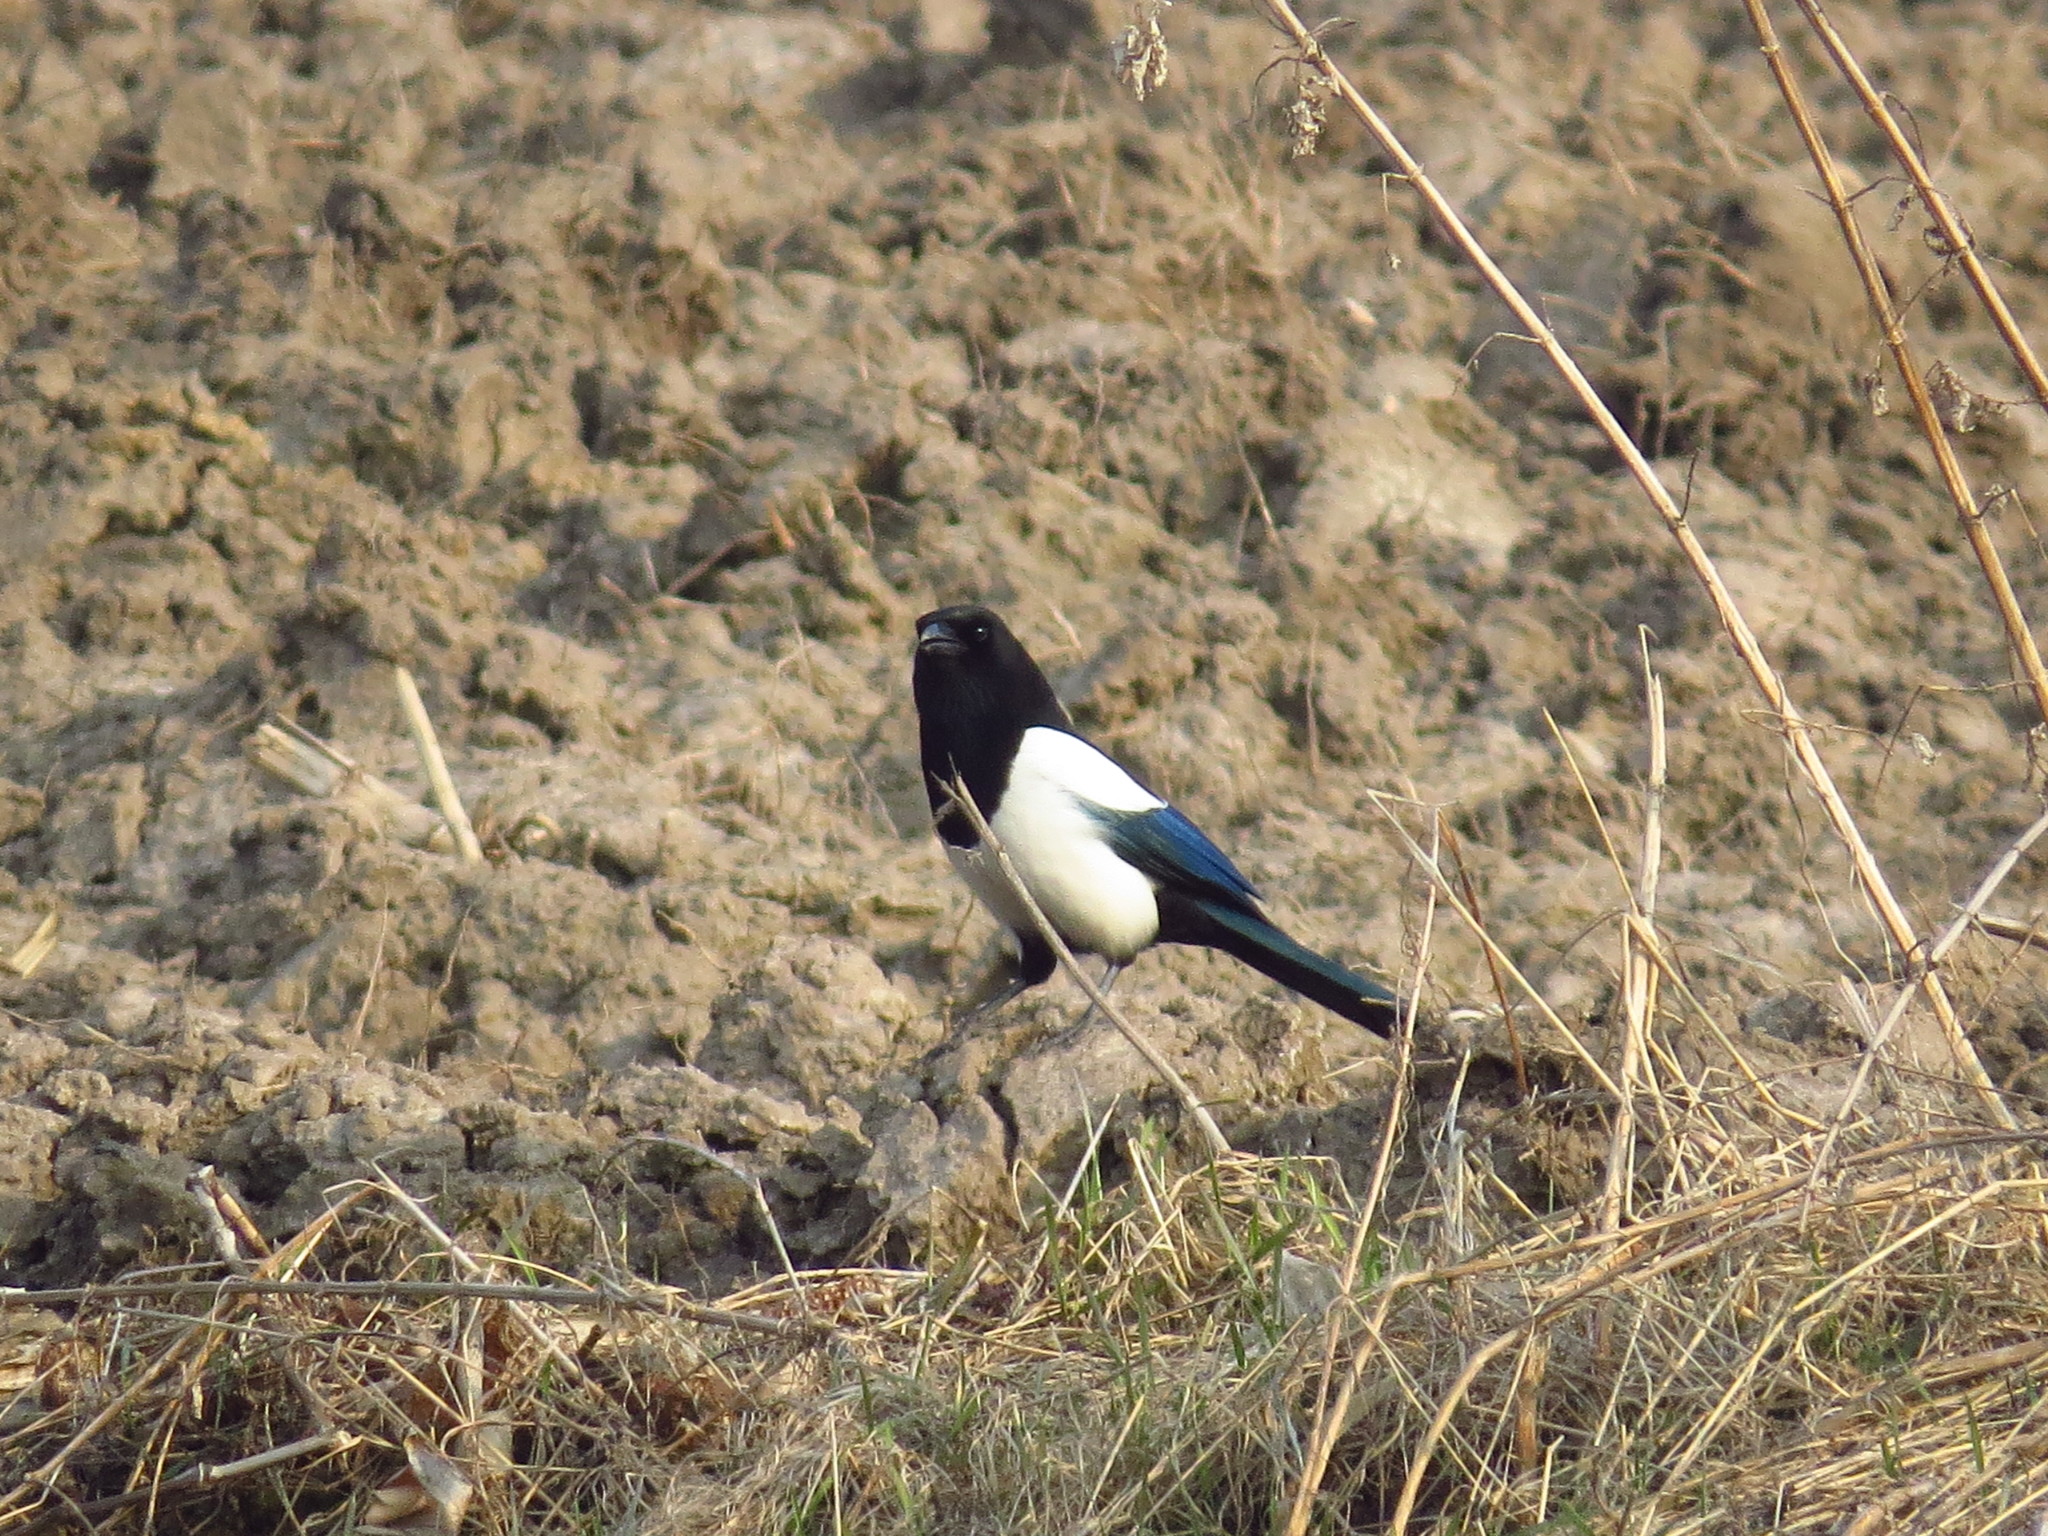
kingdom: Animalia
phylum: Chordata
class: Aves
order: Passeriformes
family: Corvidae
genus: Pica
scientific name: Pica pica
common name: Eurasian magpie
